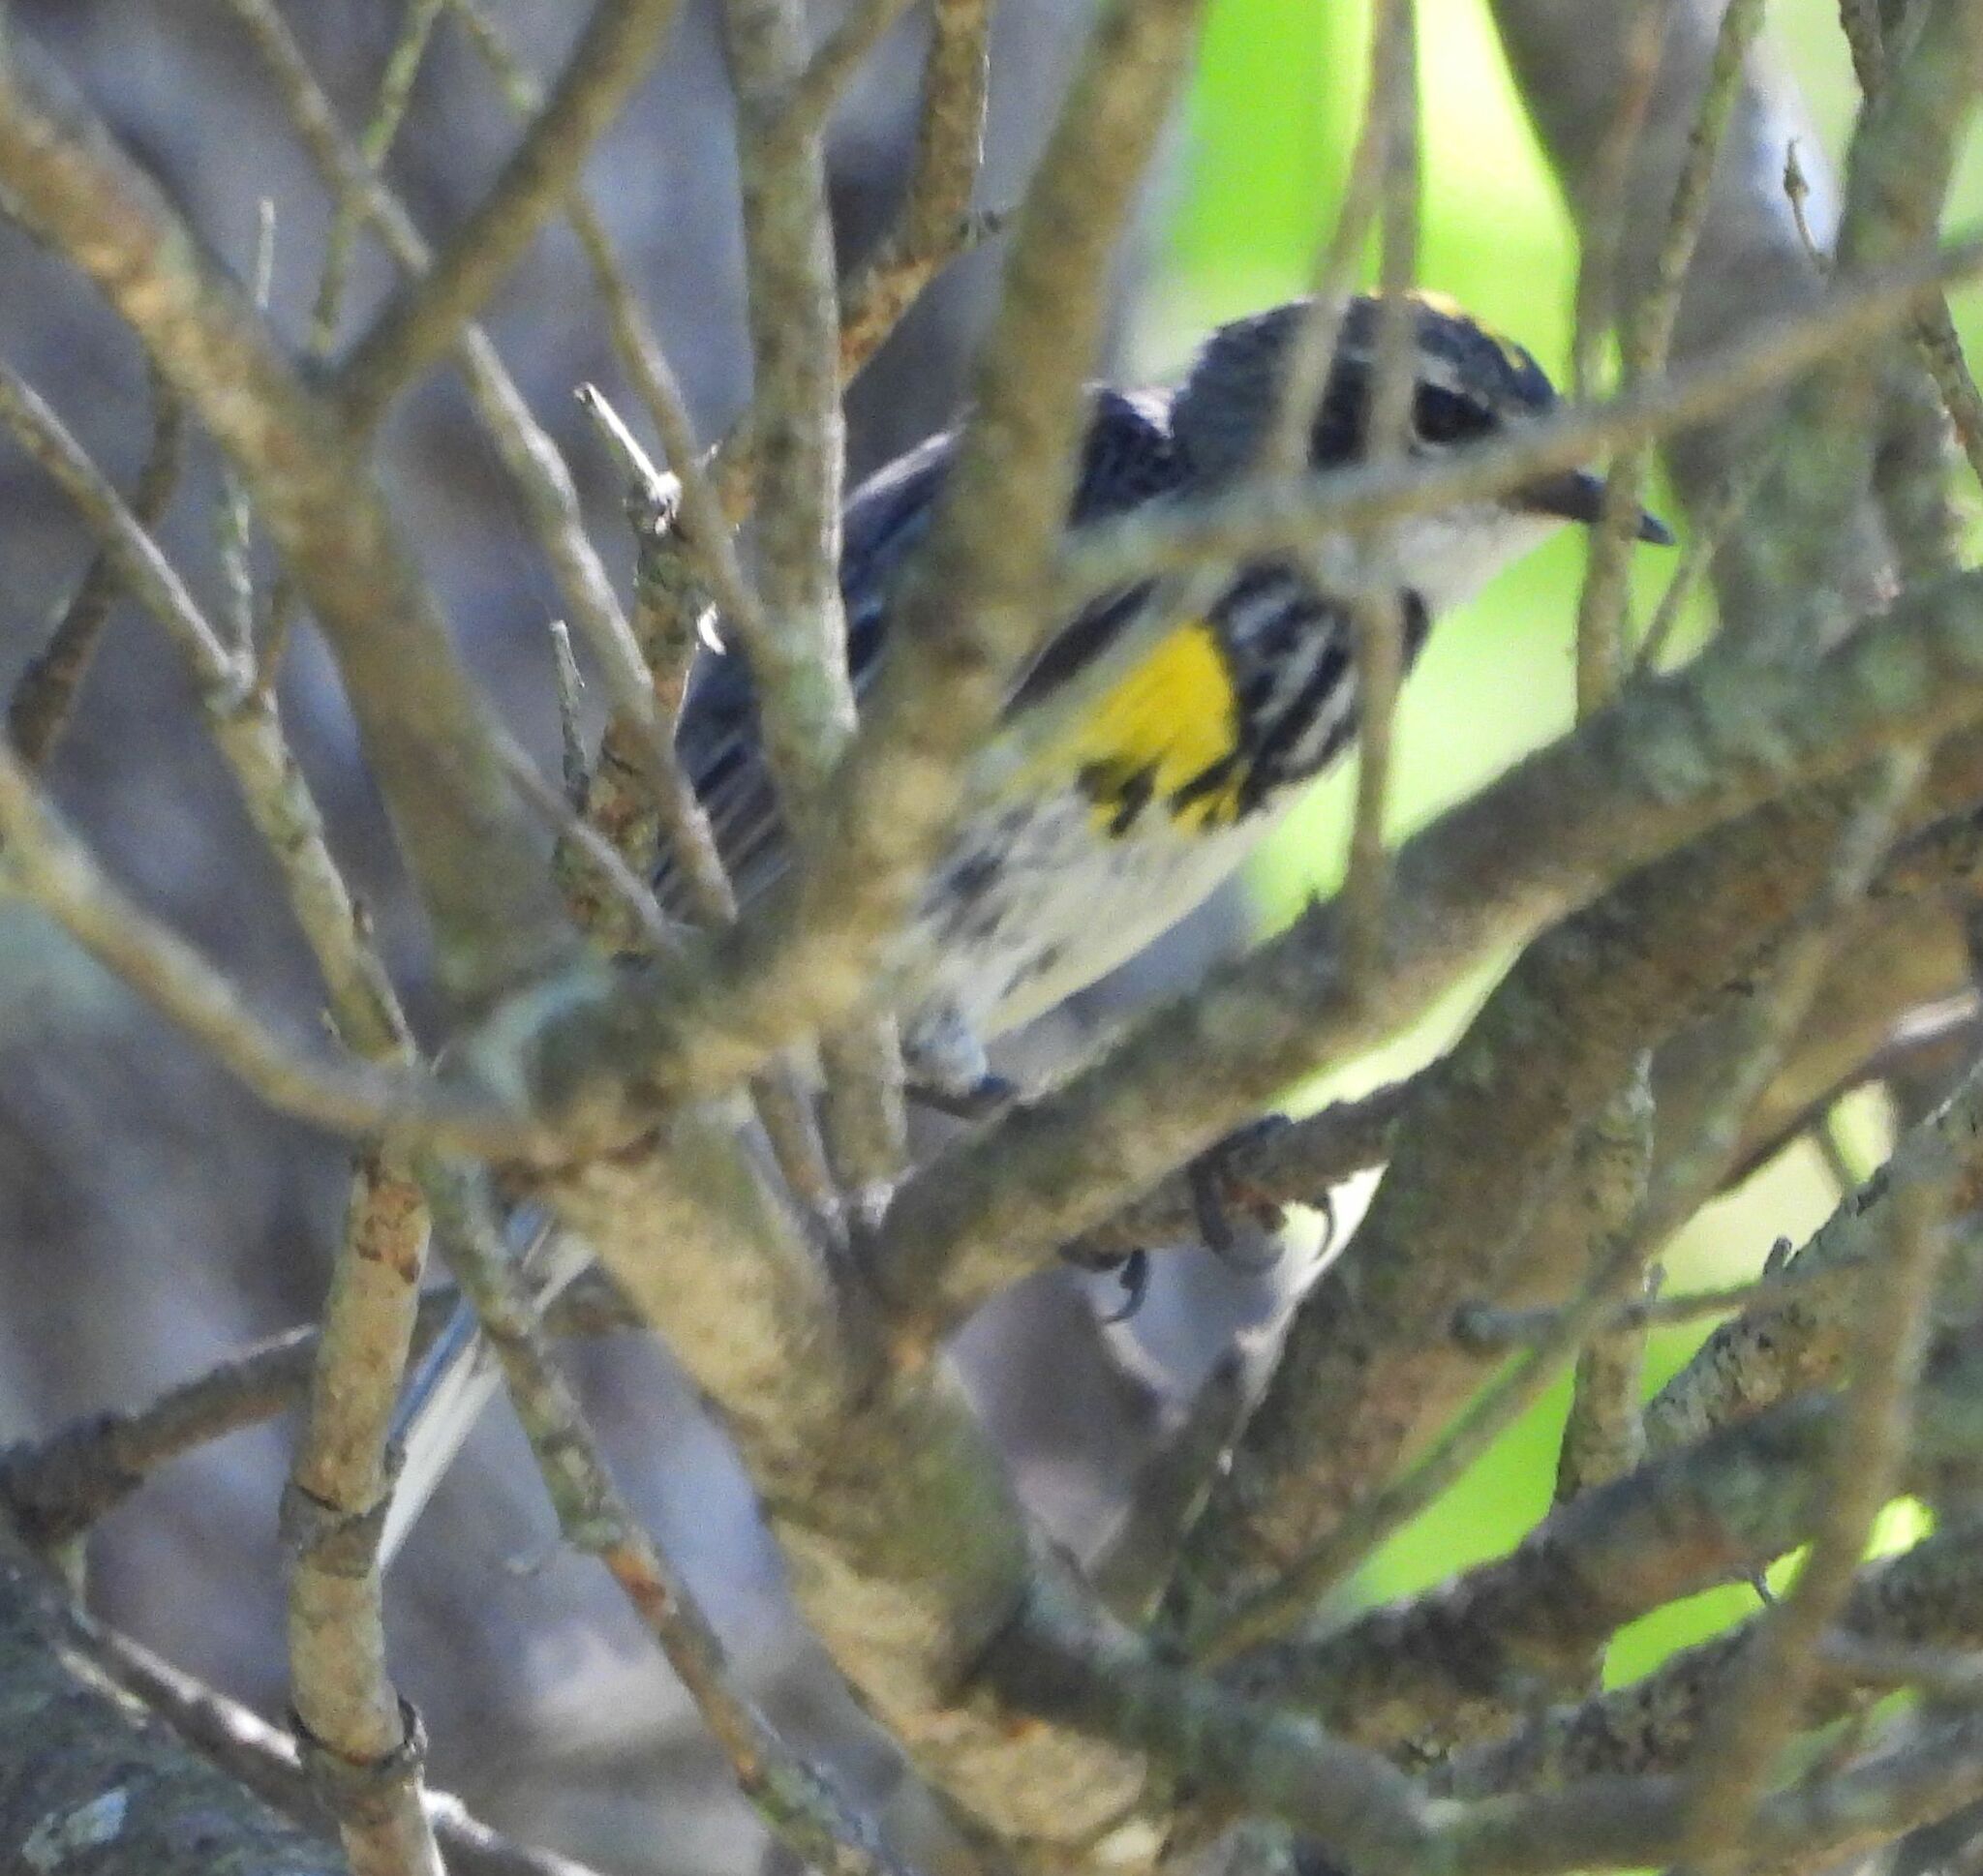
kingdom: Animalia
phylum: Chordata
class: Aves
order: Passeriformes
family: Parulidae
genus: Setophaga
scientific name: Setophaga coronata
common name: Myrtle warbler
